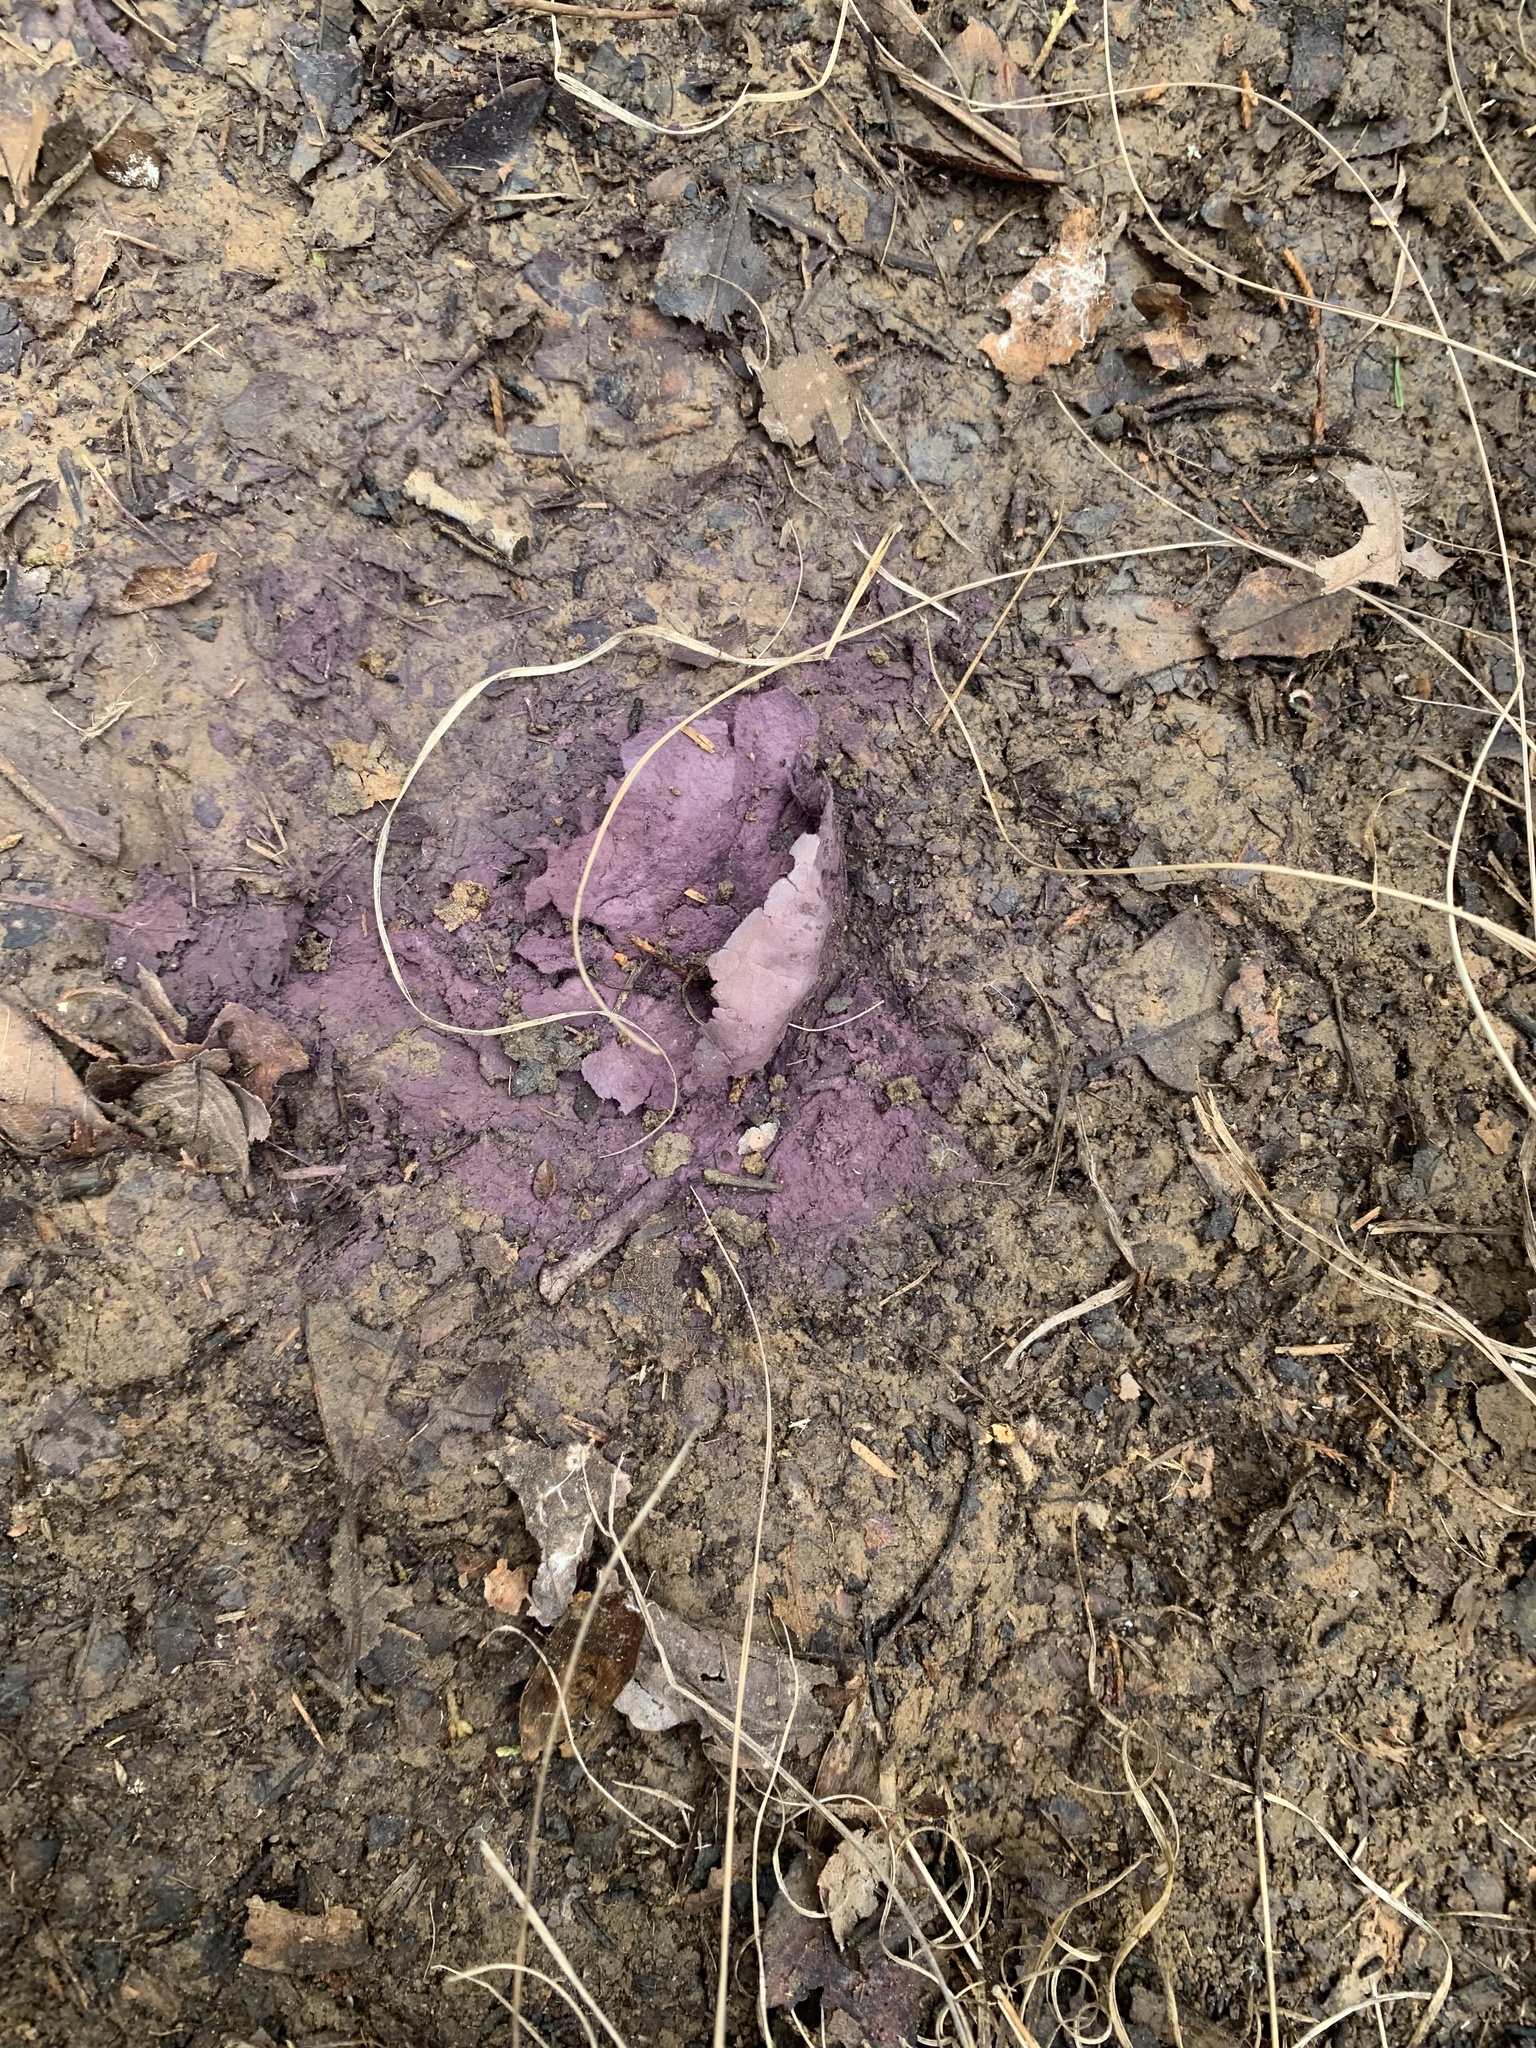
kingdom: Fungi
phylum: Basidiomycota
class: Agaricomycetes
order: Agaricales
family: Lycoperdaceae
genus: Calvatia
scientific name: Calvatia cyathiformis
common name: Purple-spored puffball
